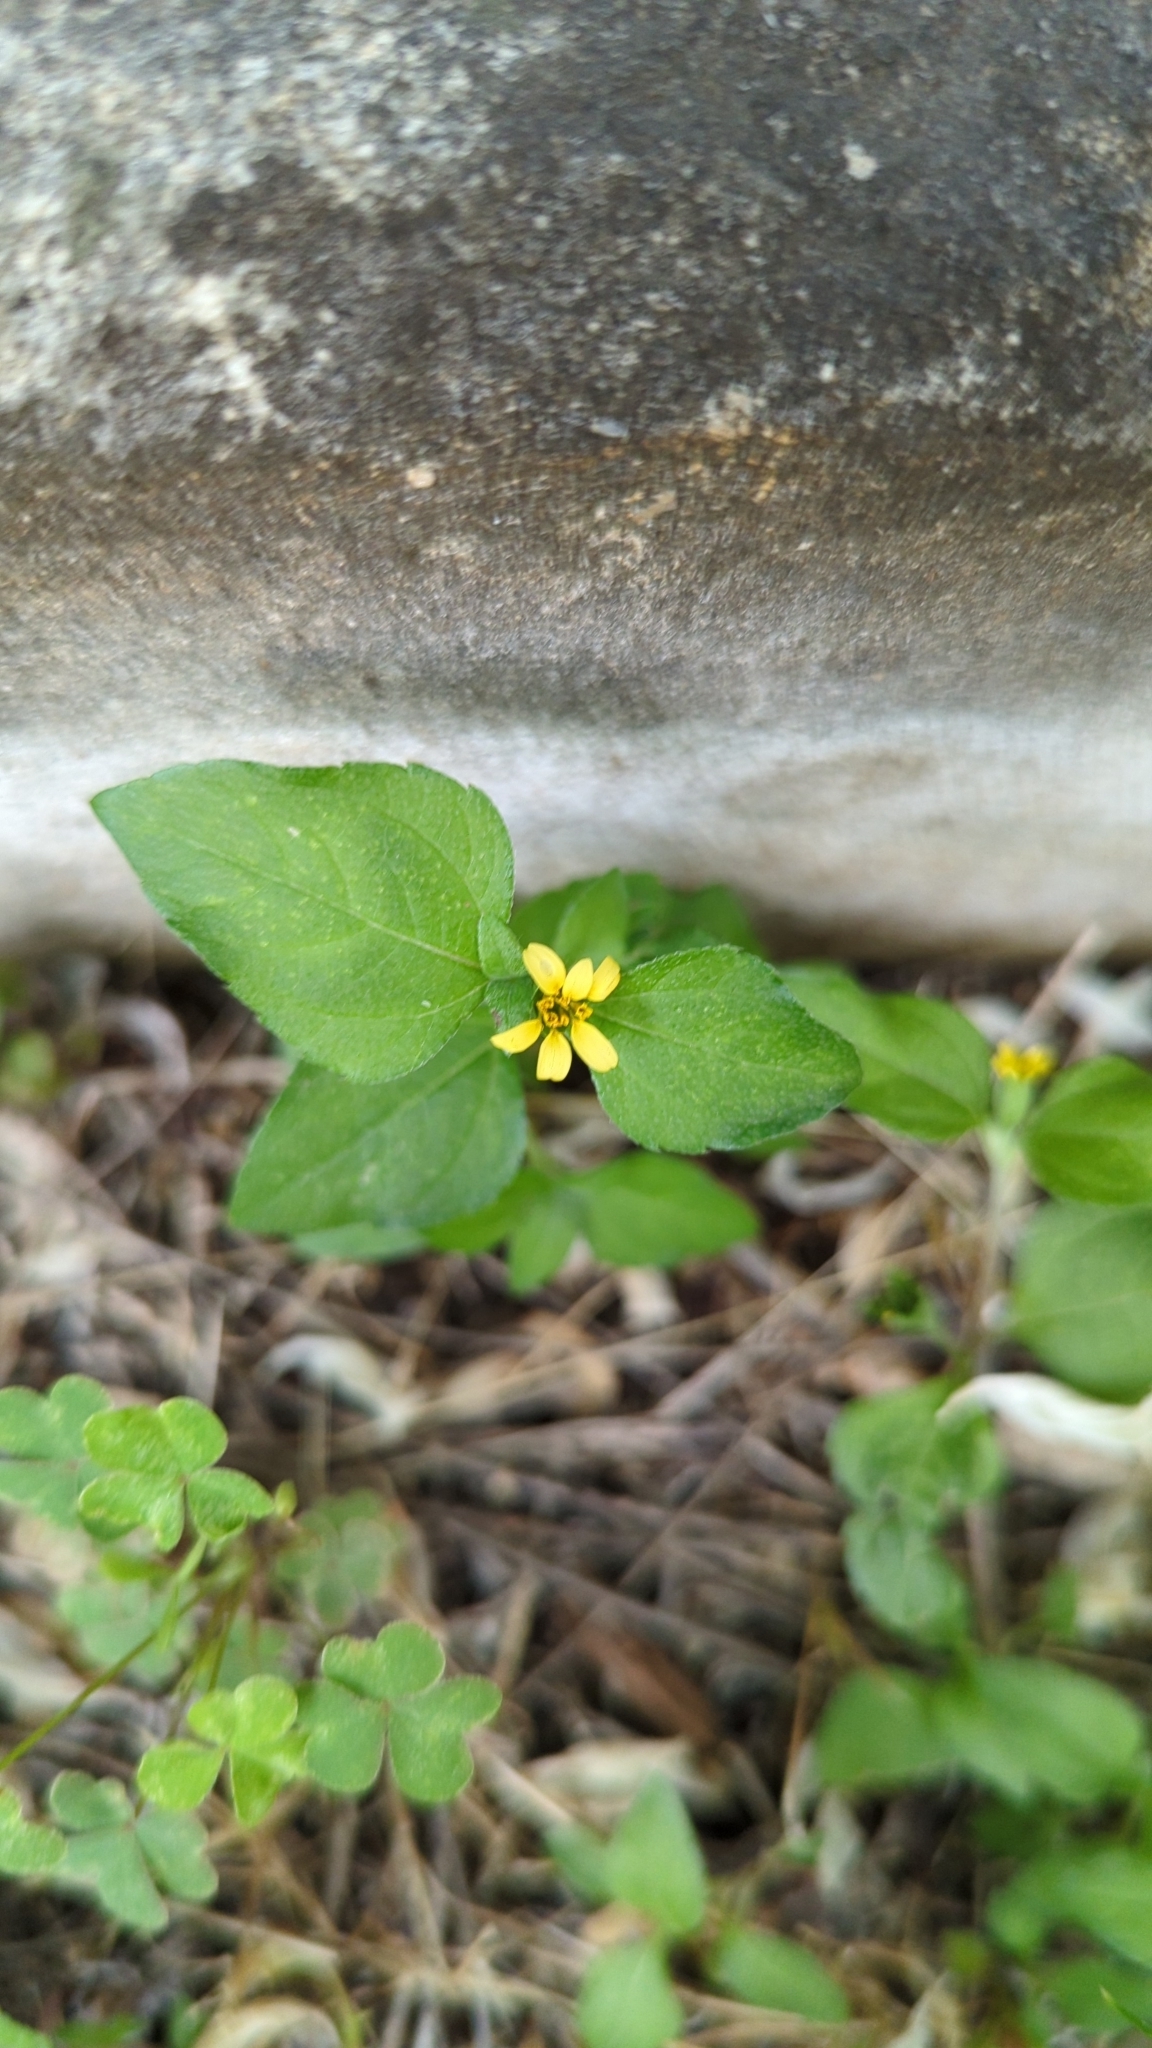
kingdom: Plantae
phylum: Tracheophyta
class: Magnoliopsida
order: Asterales
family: Asteraceae
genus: Calyptocarpus
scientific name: Calyptocarpus vialis
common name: Straggler daisy
